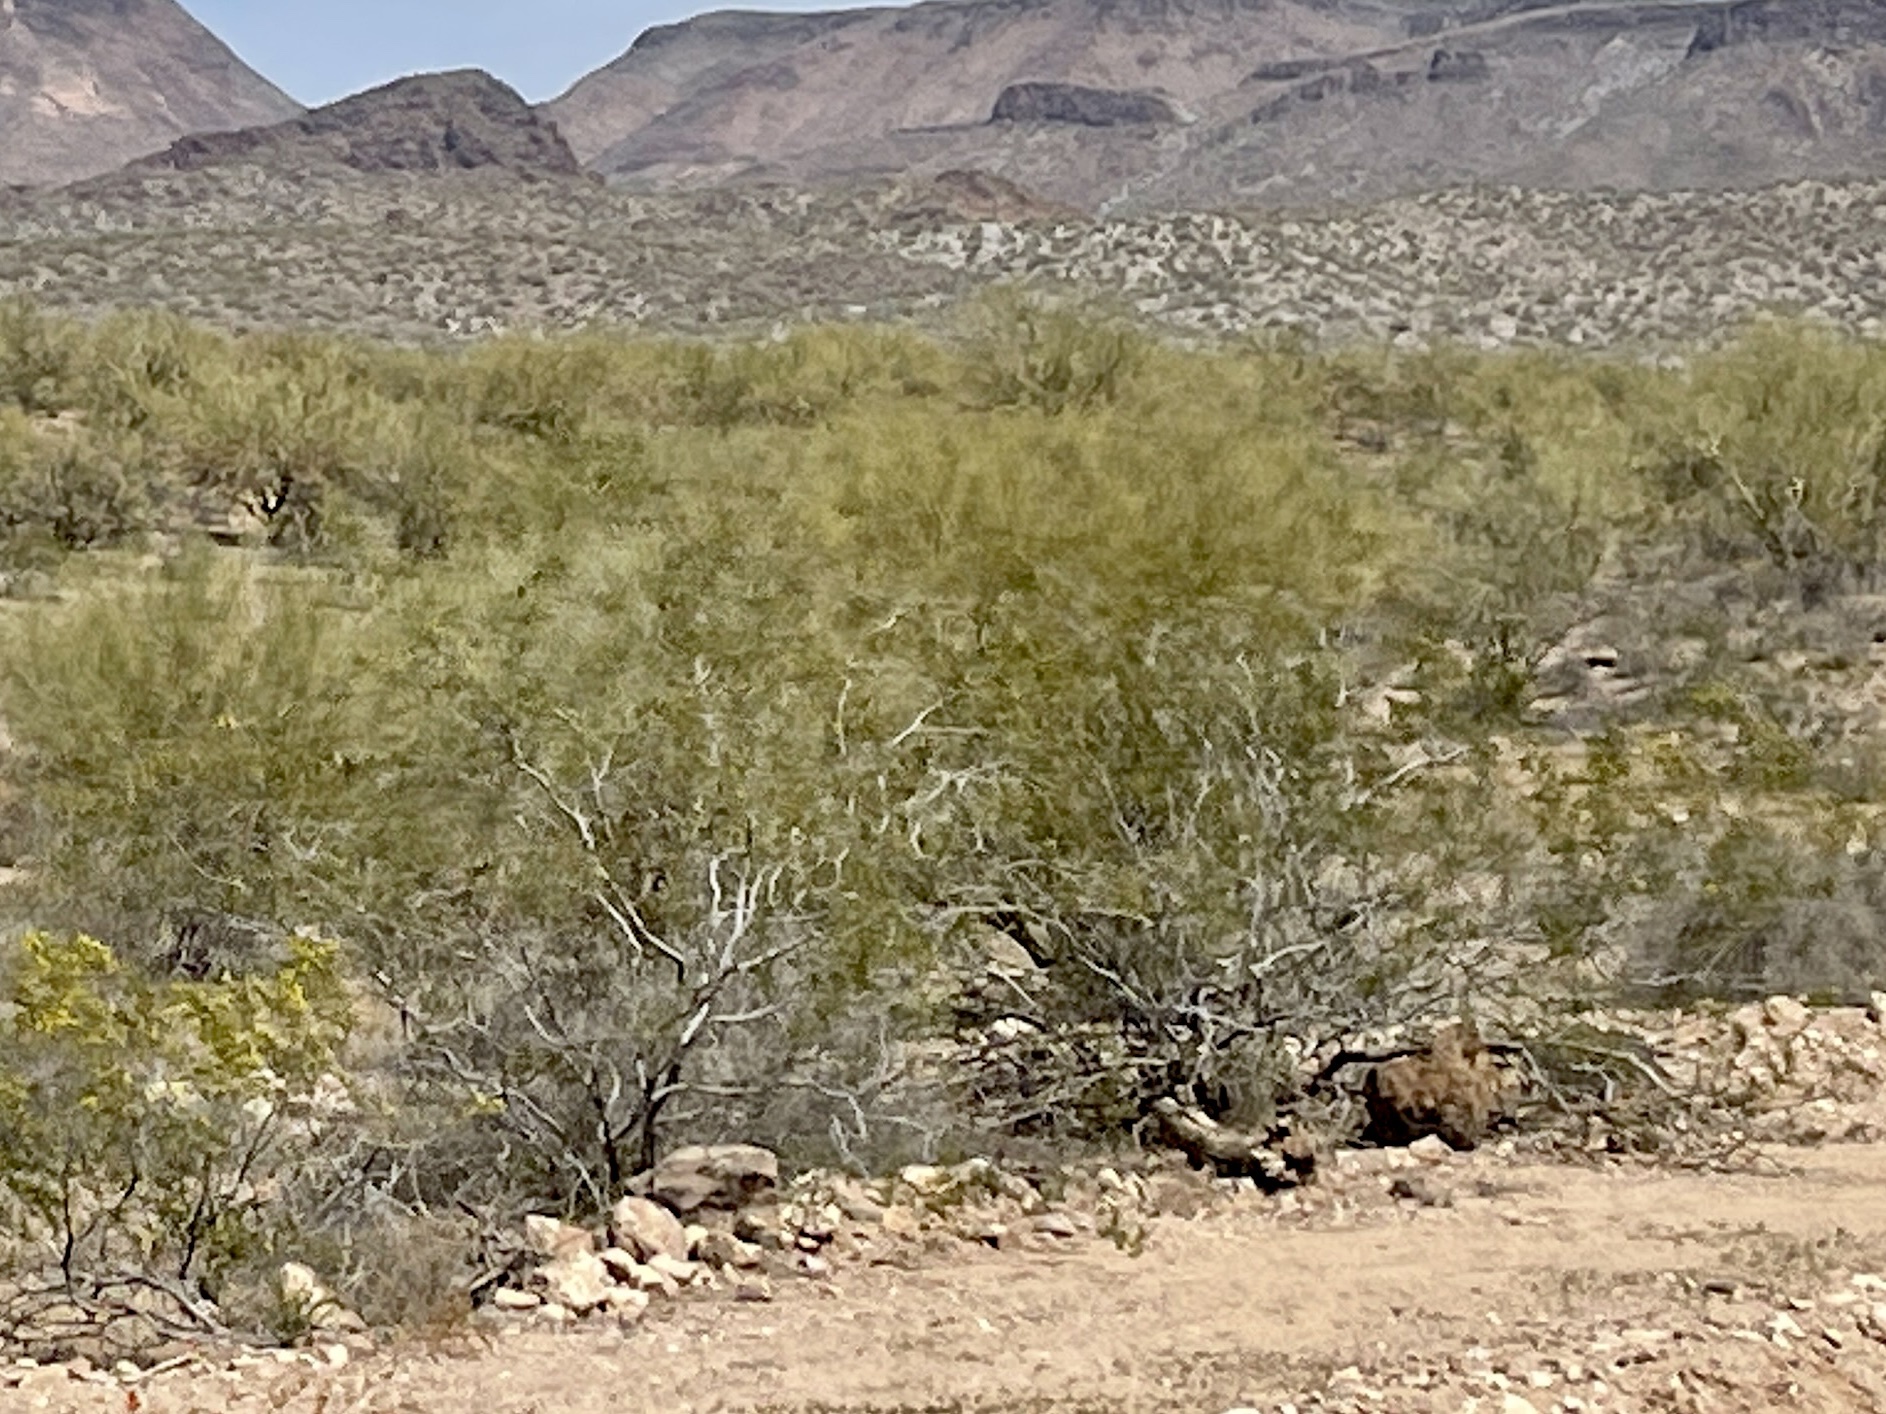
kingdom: Plantae
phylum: Tracheophyta
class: Magnoliopsida
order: Zygophyllales
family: Zygophyllaceae
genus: Larrea
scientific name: Larrea tridentata
